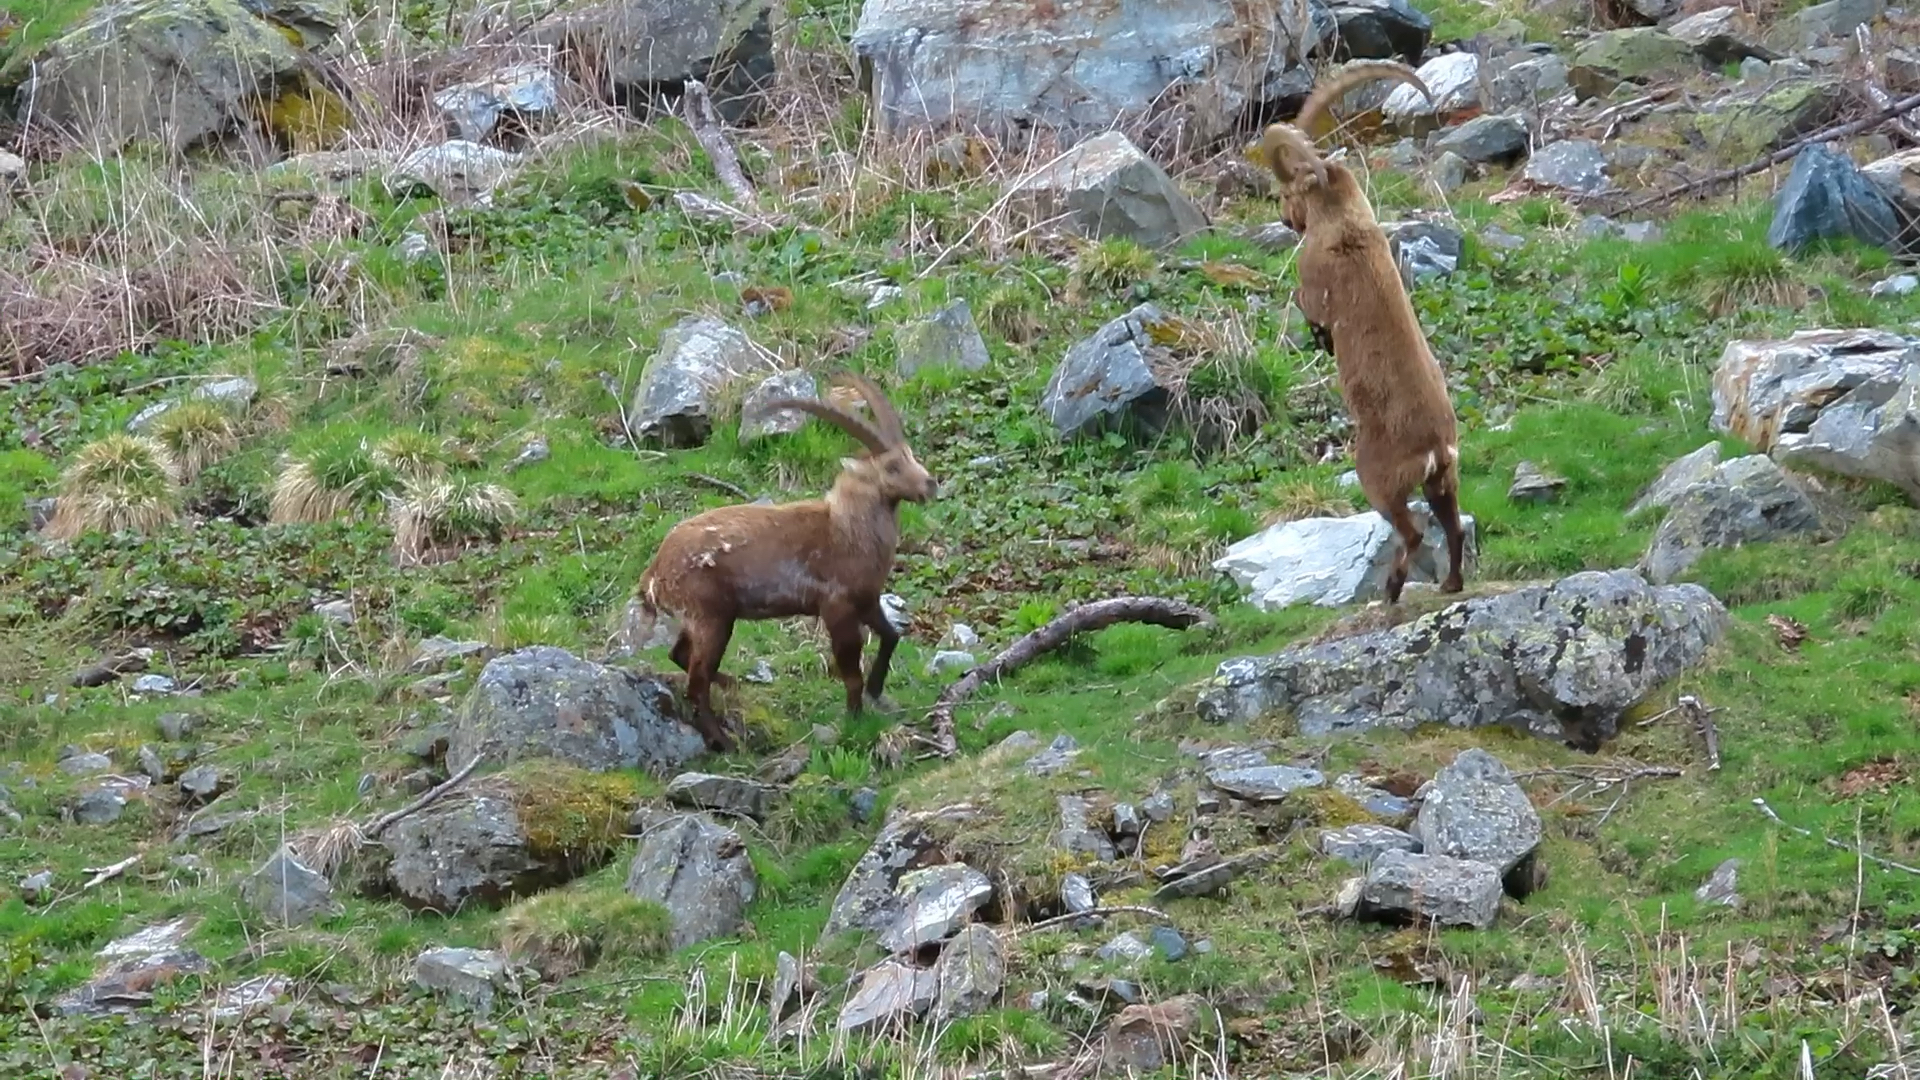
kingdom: Animalia
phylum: Chordata
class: Mammalia
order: Artiodactyla
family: Bovidae
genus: Capra
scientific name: Capra ibex
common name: Alpine ibex
